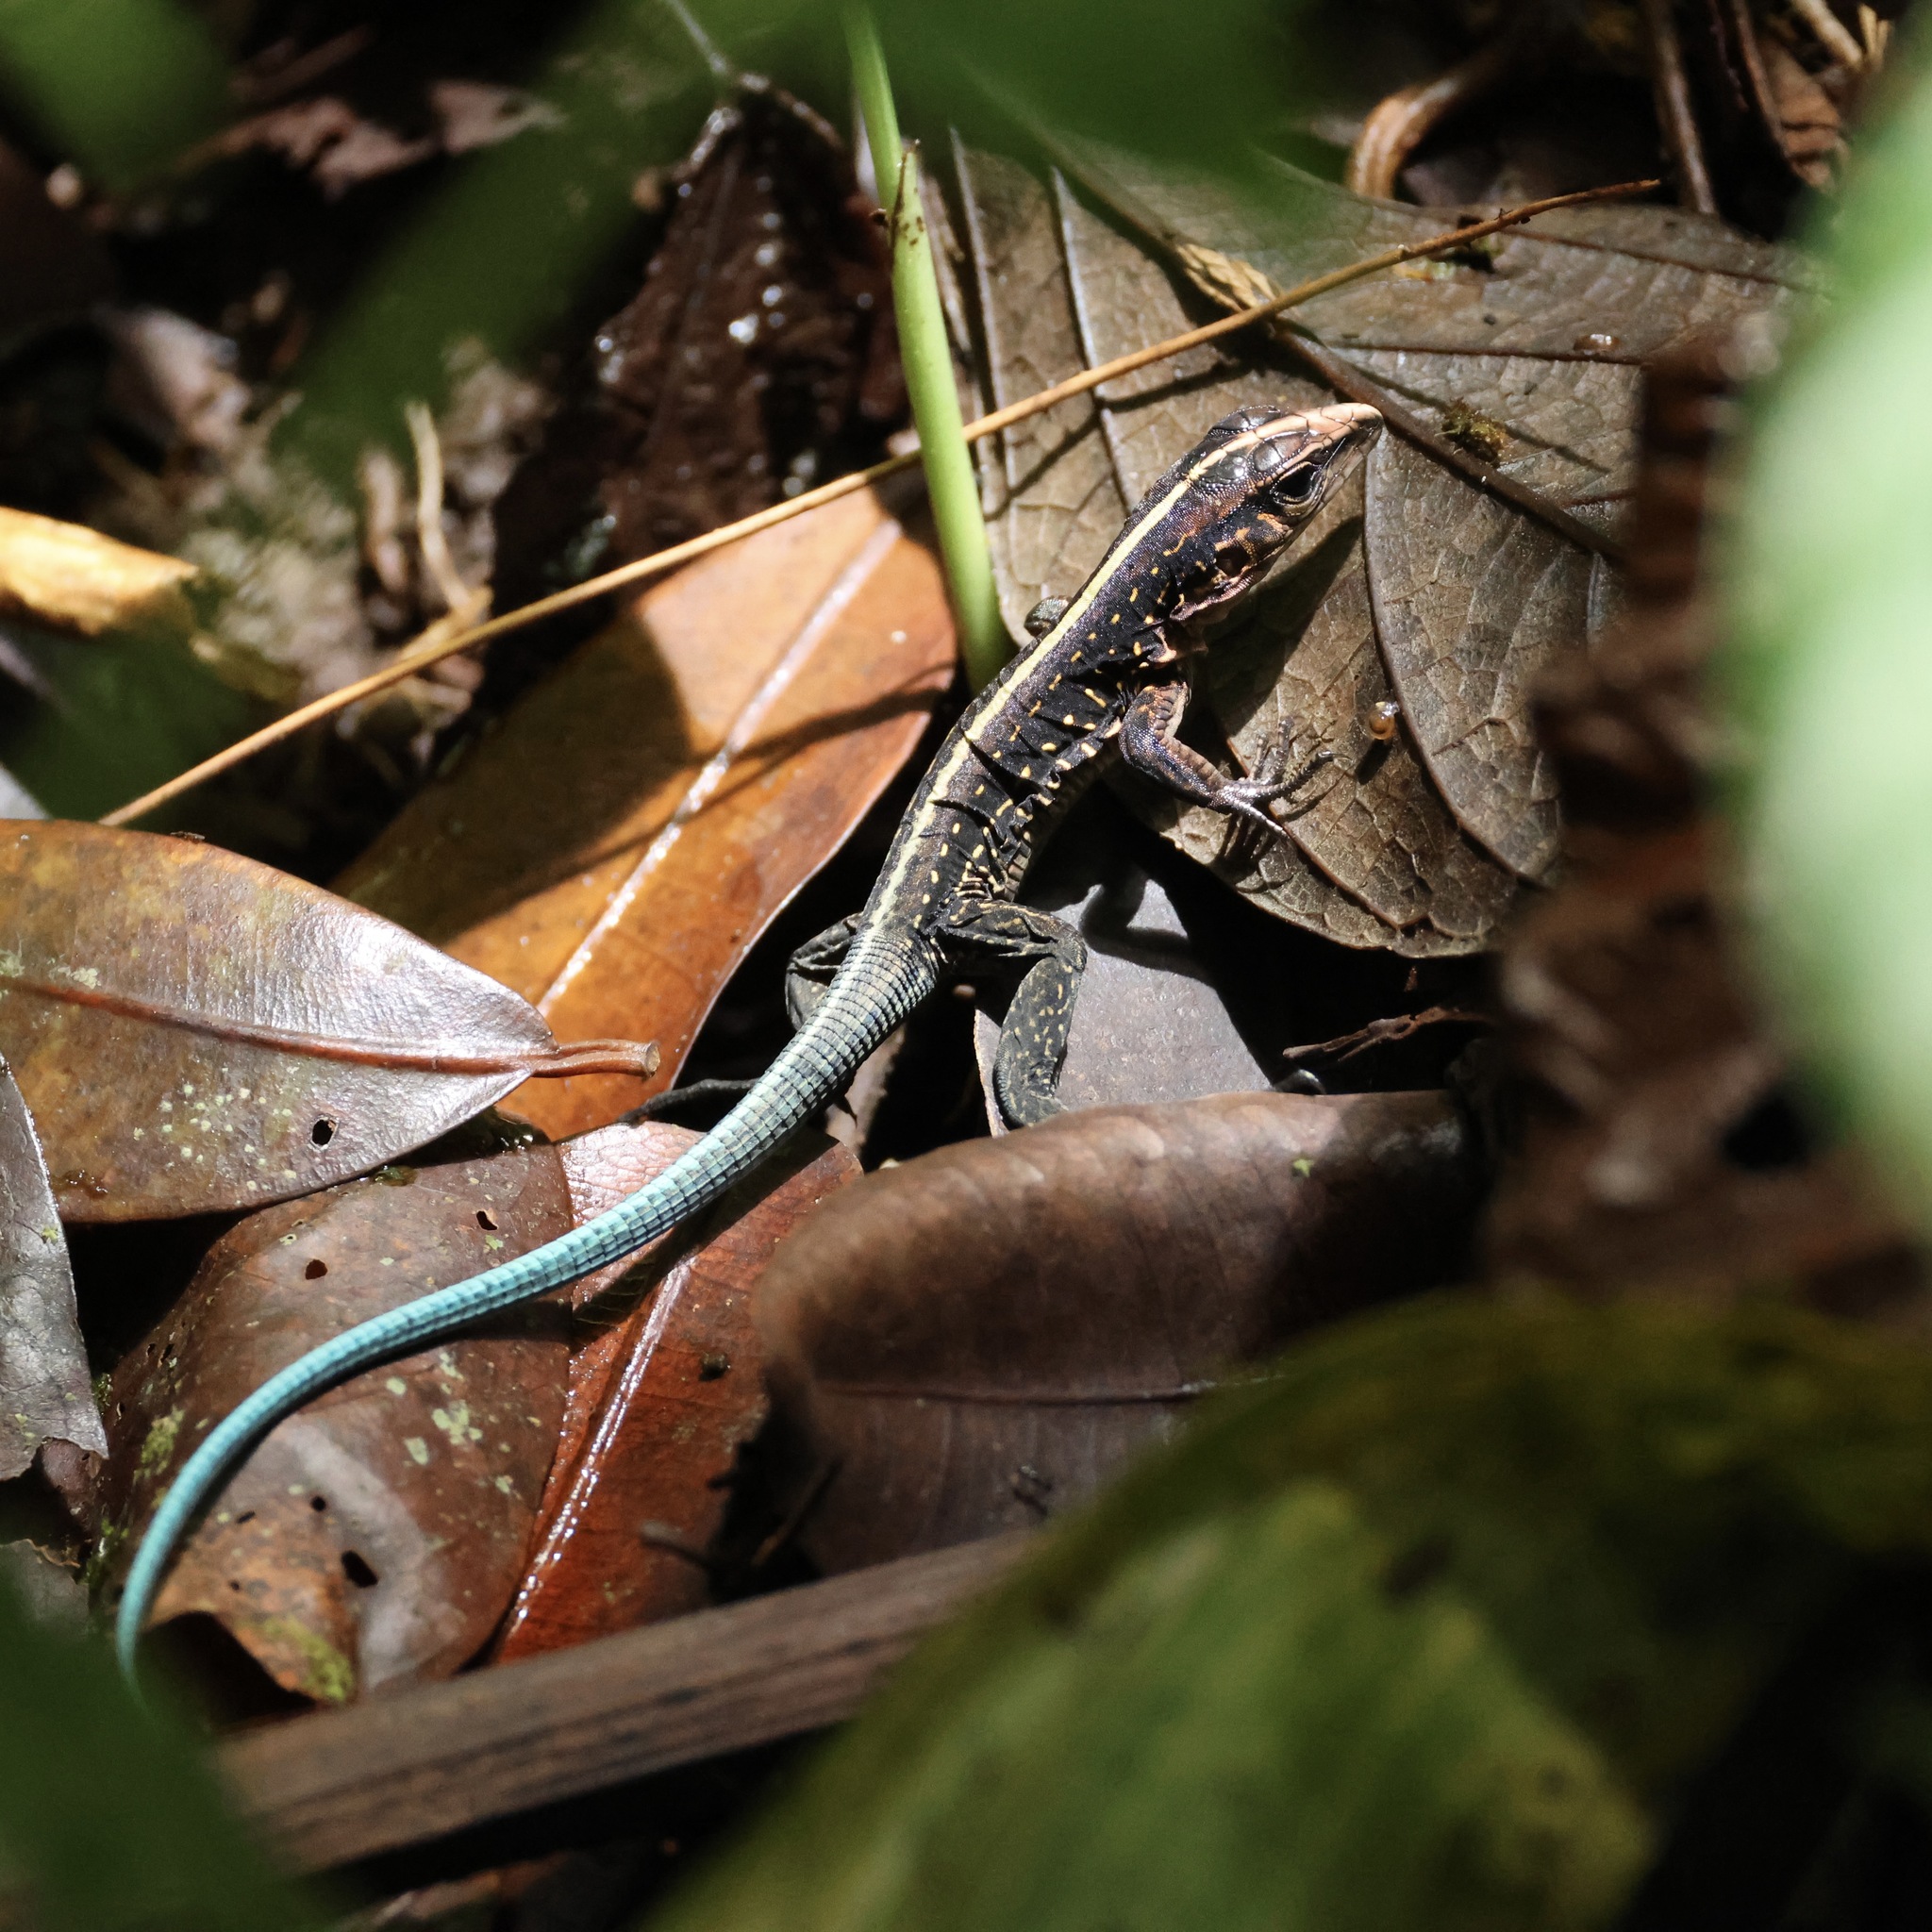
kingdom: Animalia
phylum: Chordata
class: Squamata
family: Teiidae
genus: Holcosus
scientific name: Holcosus festivus
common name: Middle american ameiva
